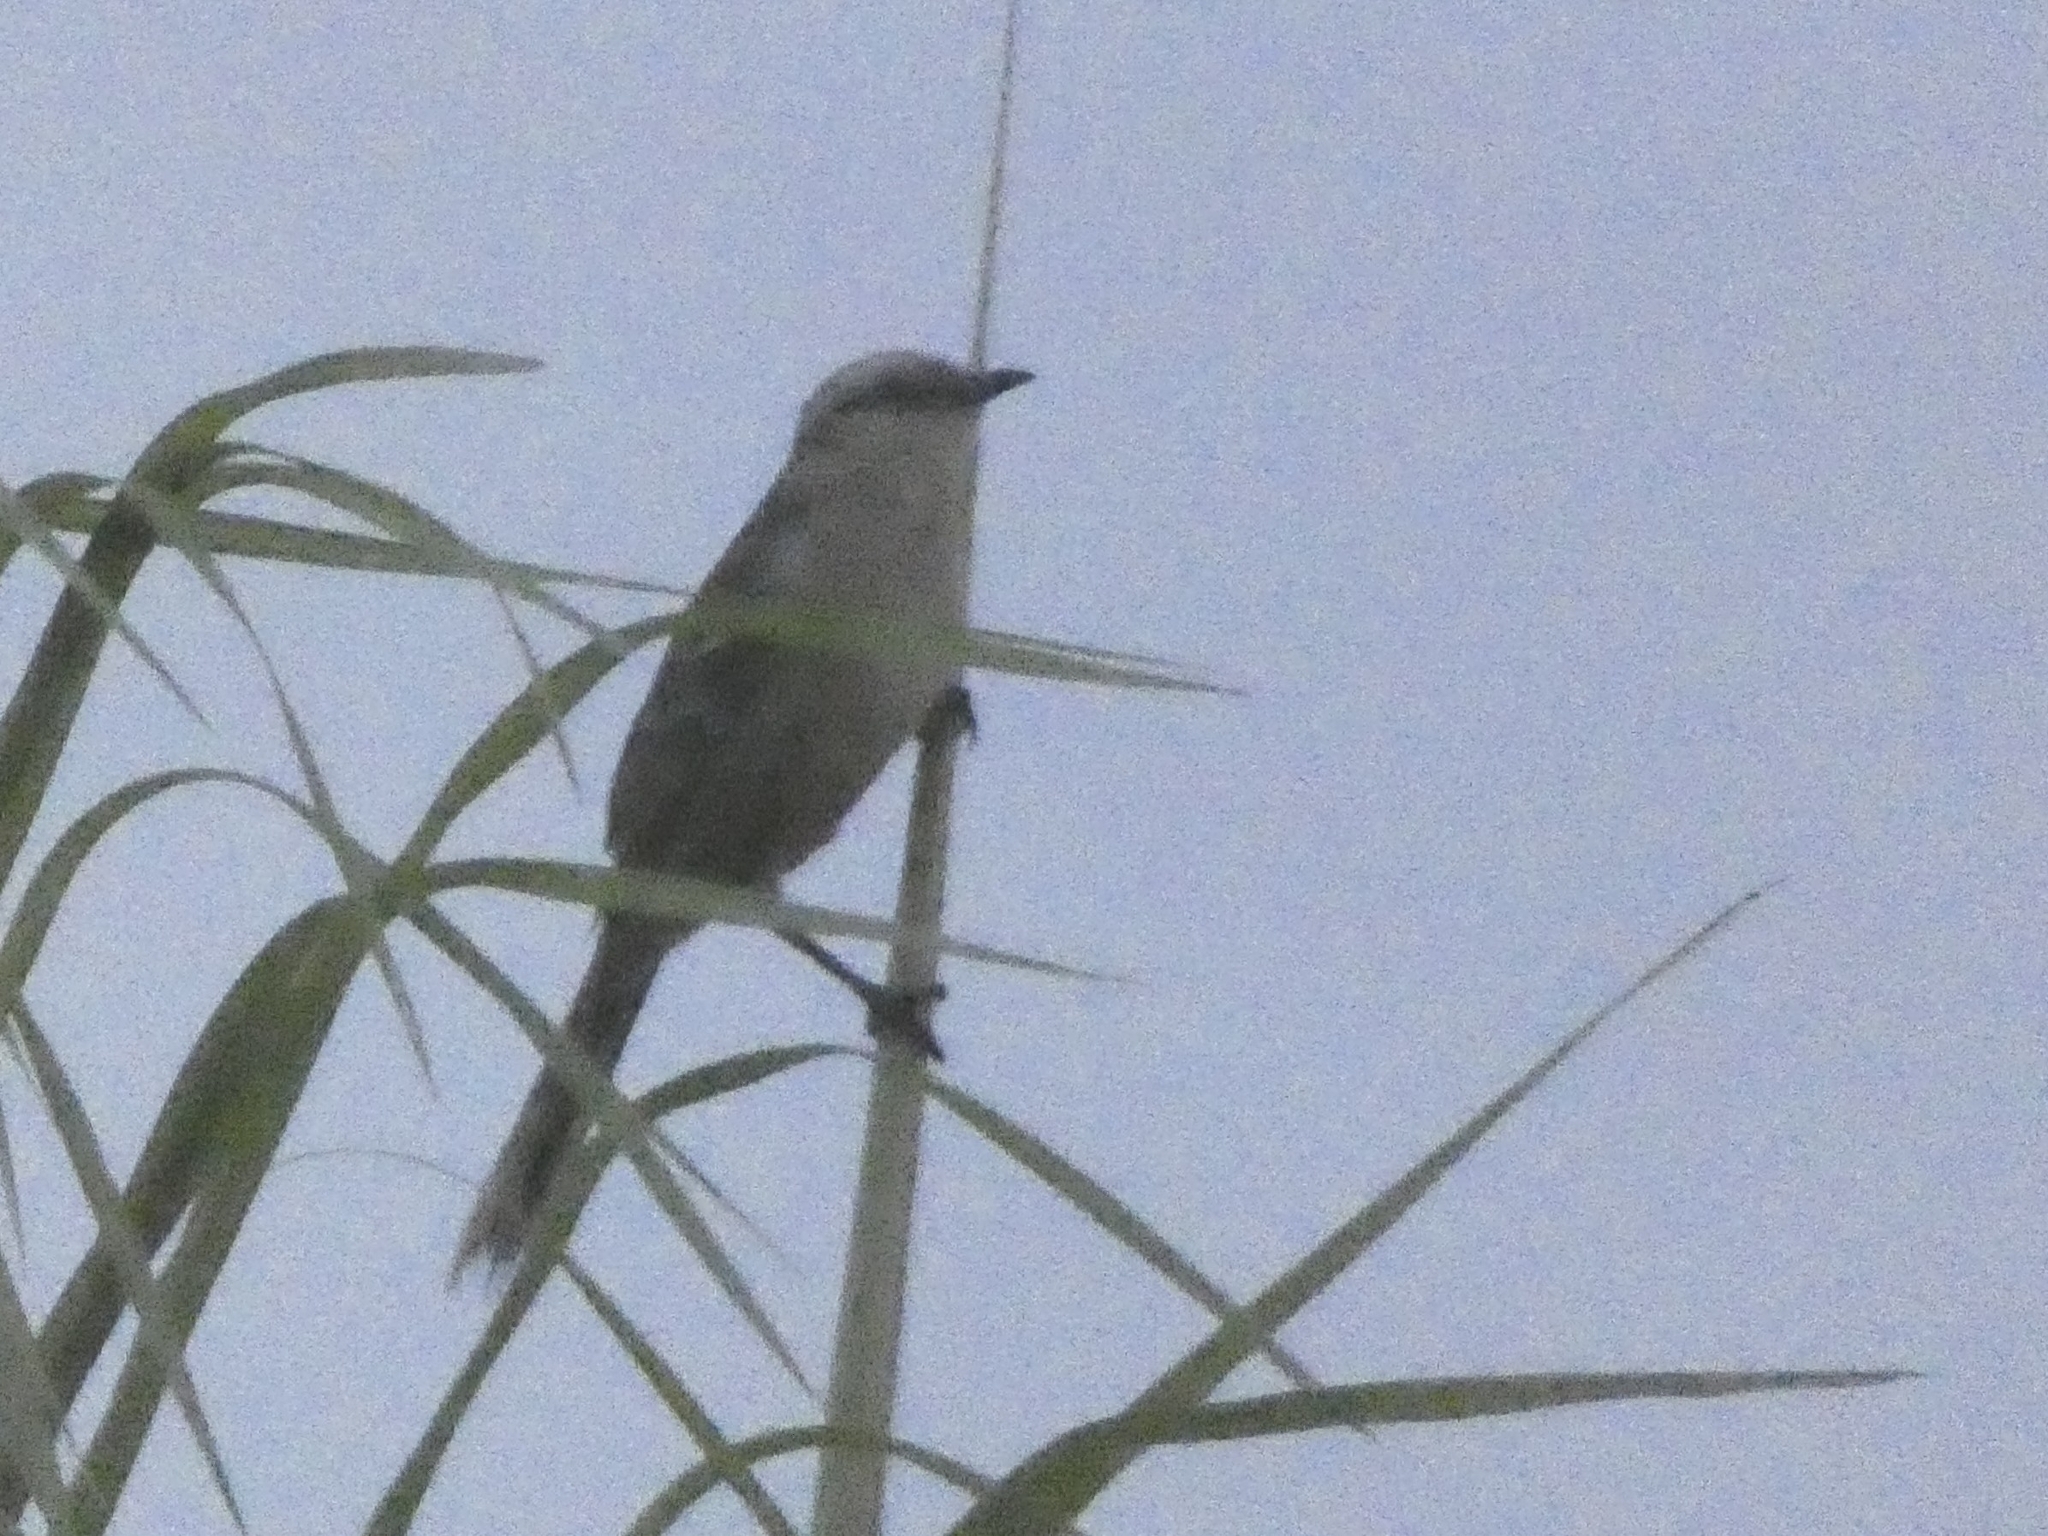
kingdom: Animalia
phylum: Chordata
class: Aves
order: Passeriformes
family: Mimidae
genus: Mimus
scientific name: Mimus saturninus
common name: Chalk-browed mockingbird
